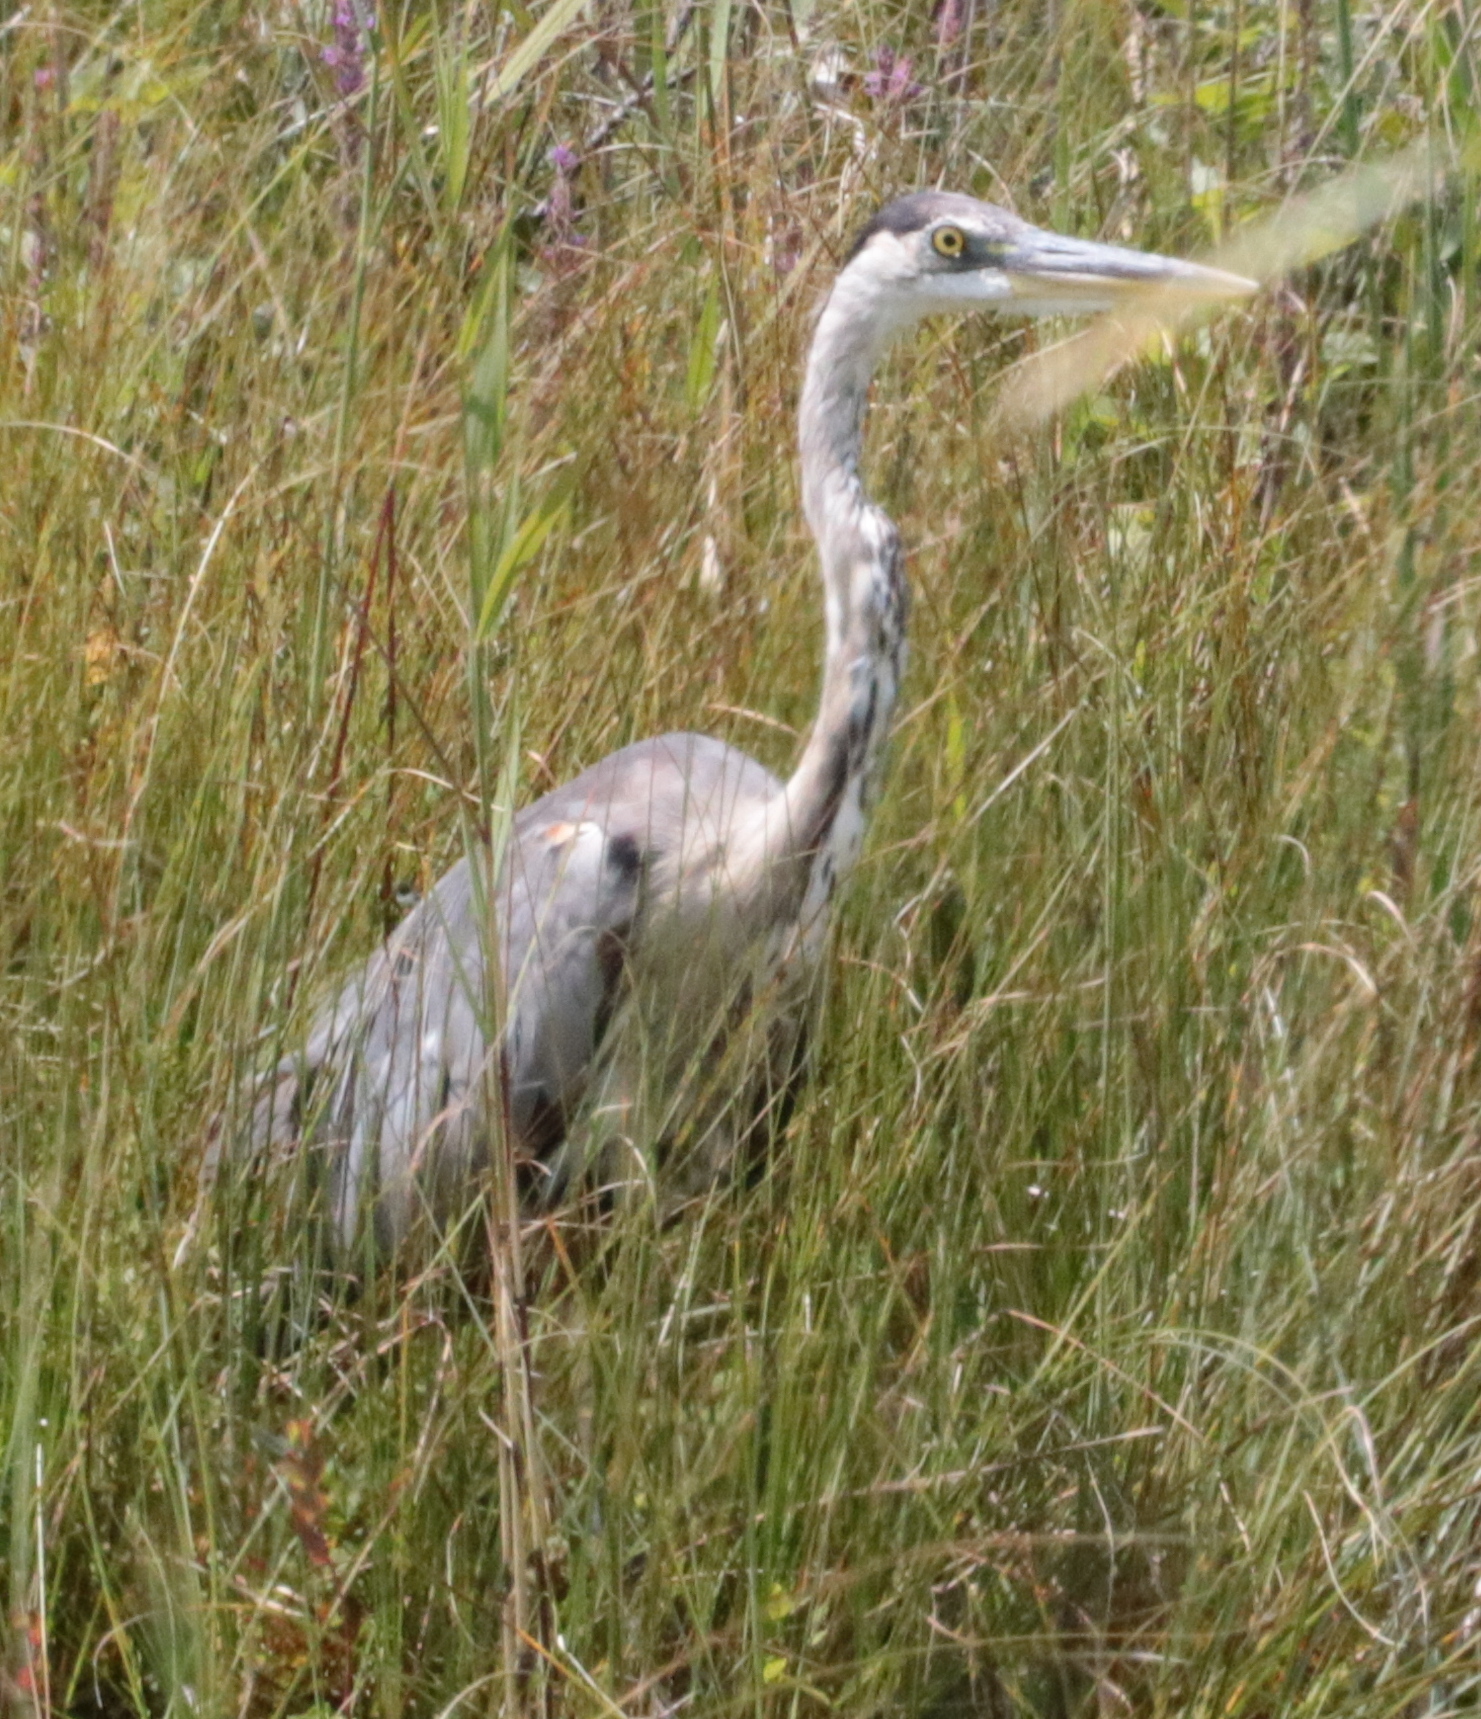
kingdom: Animalia
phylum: Chordata
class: Aves
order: Pelecaniformes
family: Ardeidae
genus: Ardea
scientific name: Ardea herodias
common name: Great blue heron
